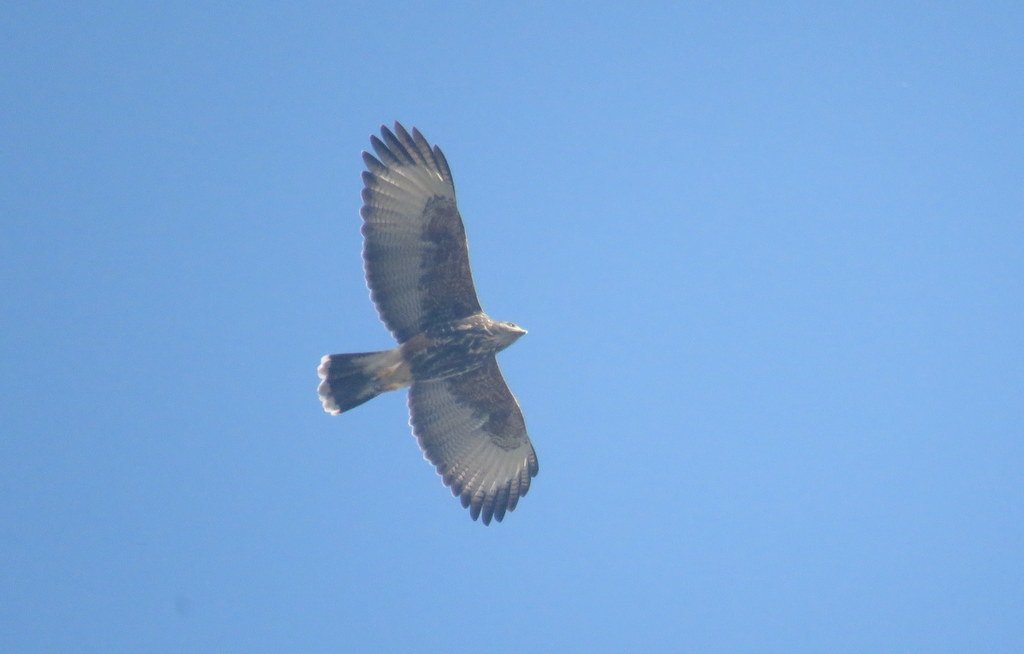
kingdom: Animalia
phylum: Chordata
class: Aves
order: Accipitriformes
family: Accipitridae
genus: Parabuteo
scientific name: Parabuteo unicinctus
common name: Harris's hawk
